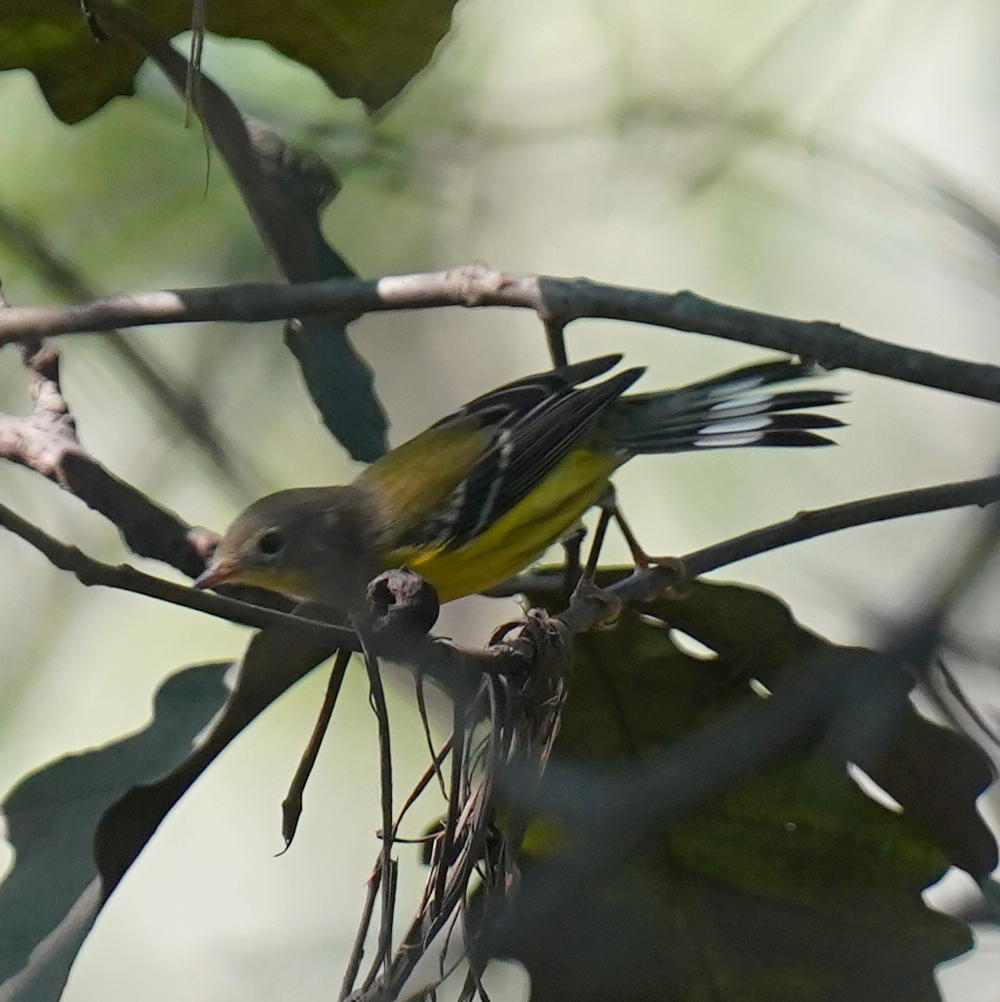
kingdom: Animalia
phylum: Chordata
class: Aves
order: Passeriformes
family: Parulidae
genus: Setophaga
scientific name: Setophaga magnolia
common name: Magnolia warbler
